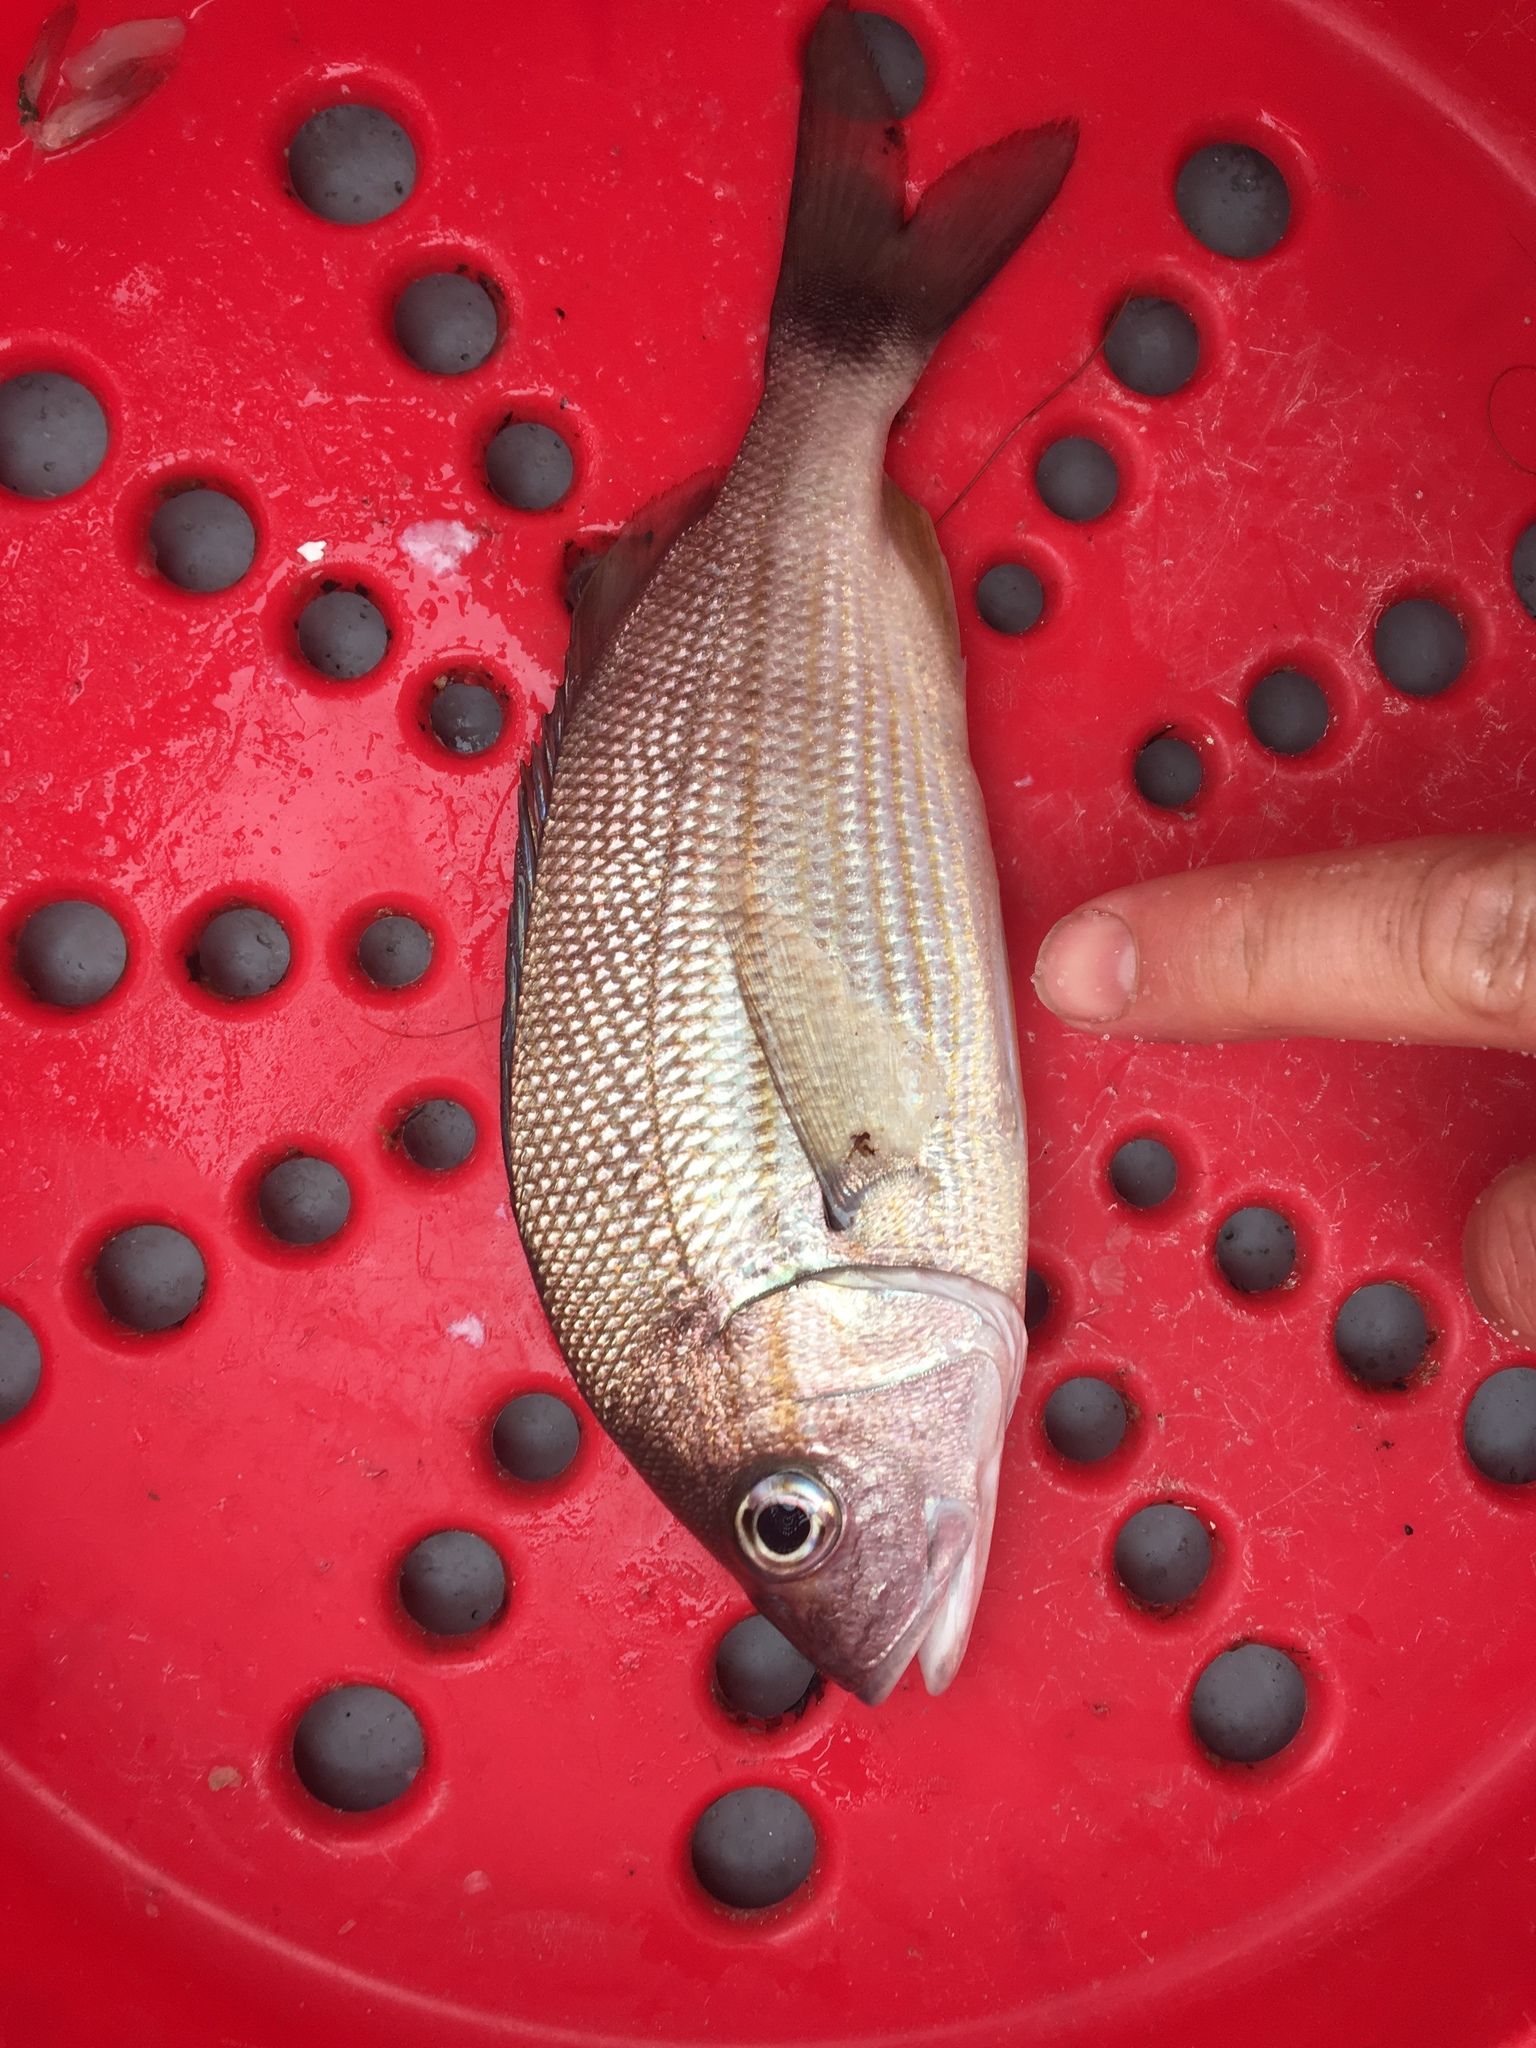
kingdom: Animalia
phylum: Chordata
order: Perciformes
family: Haemulidae
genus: Haemulon
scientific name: Haemulon aurolineatum
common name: Tomtate
